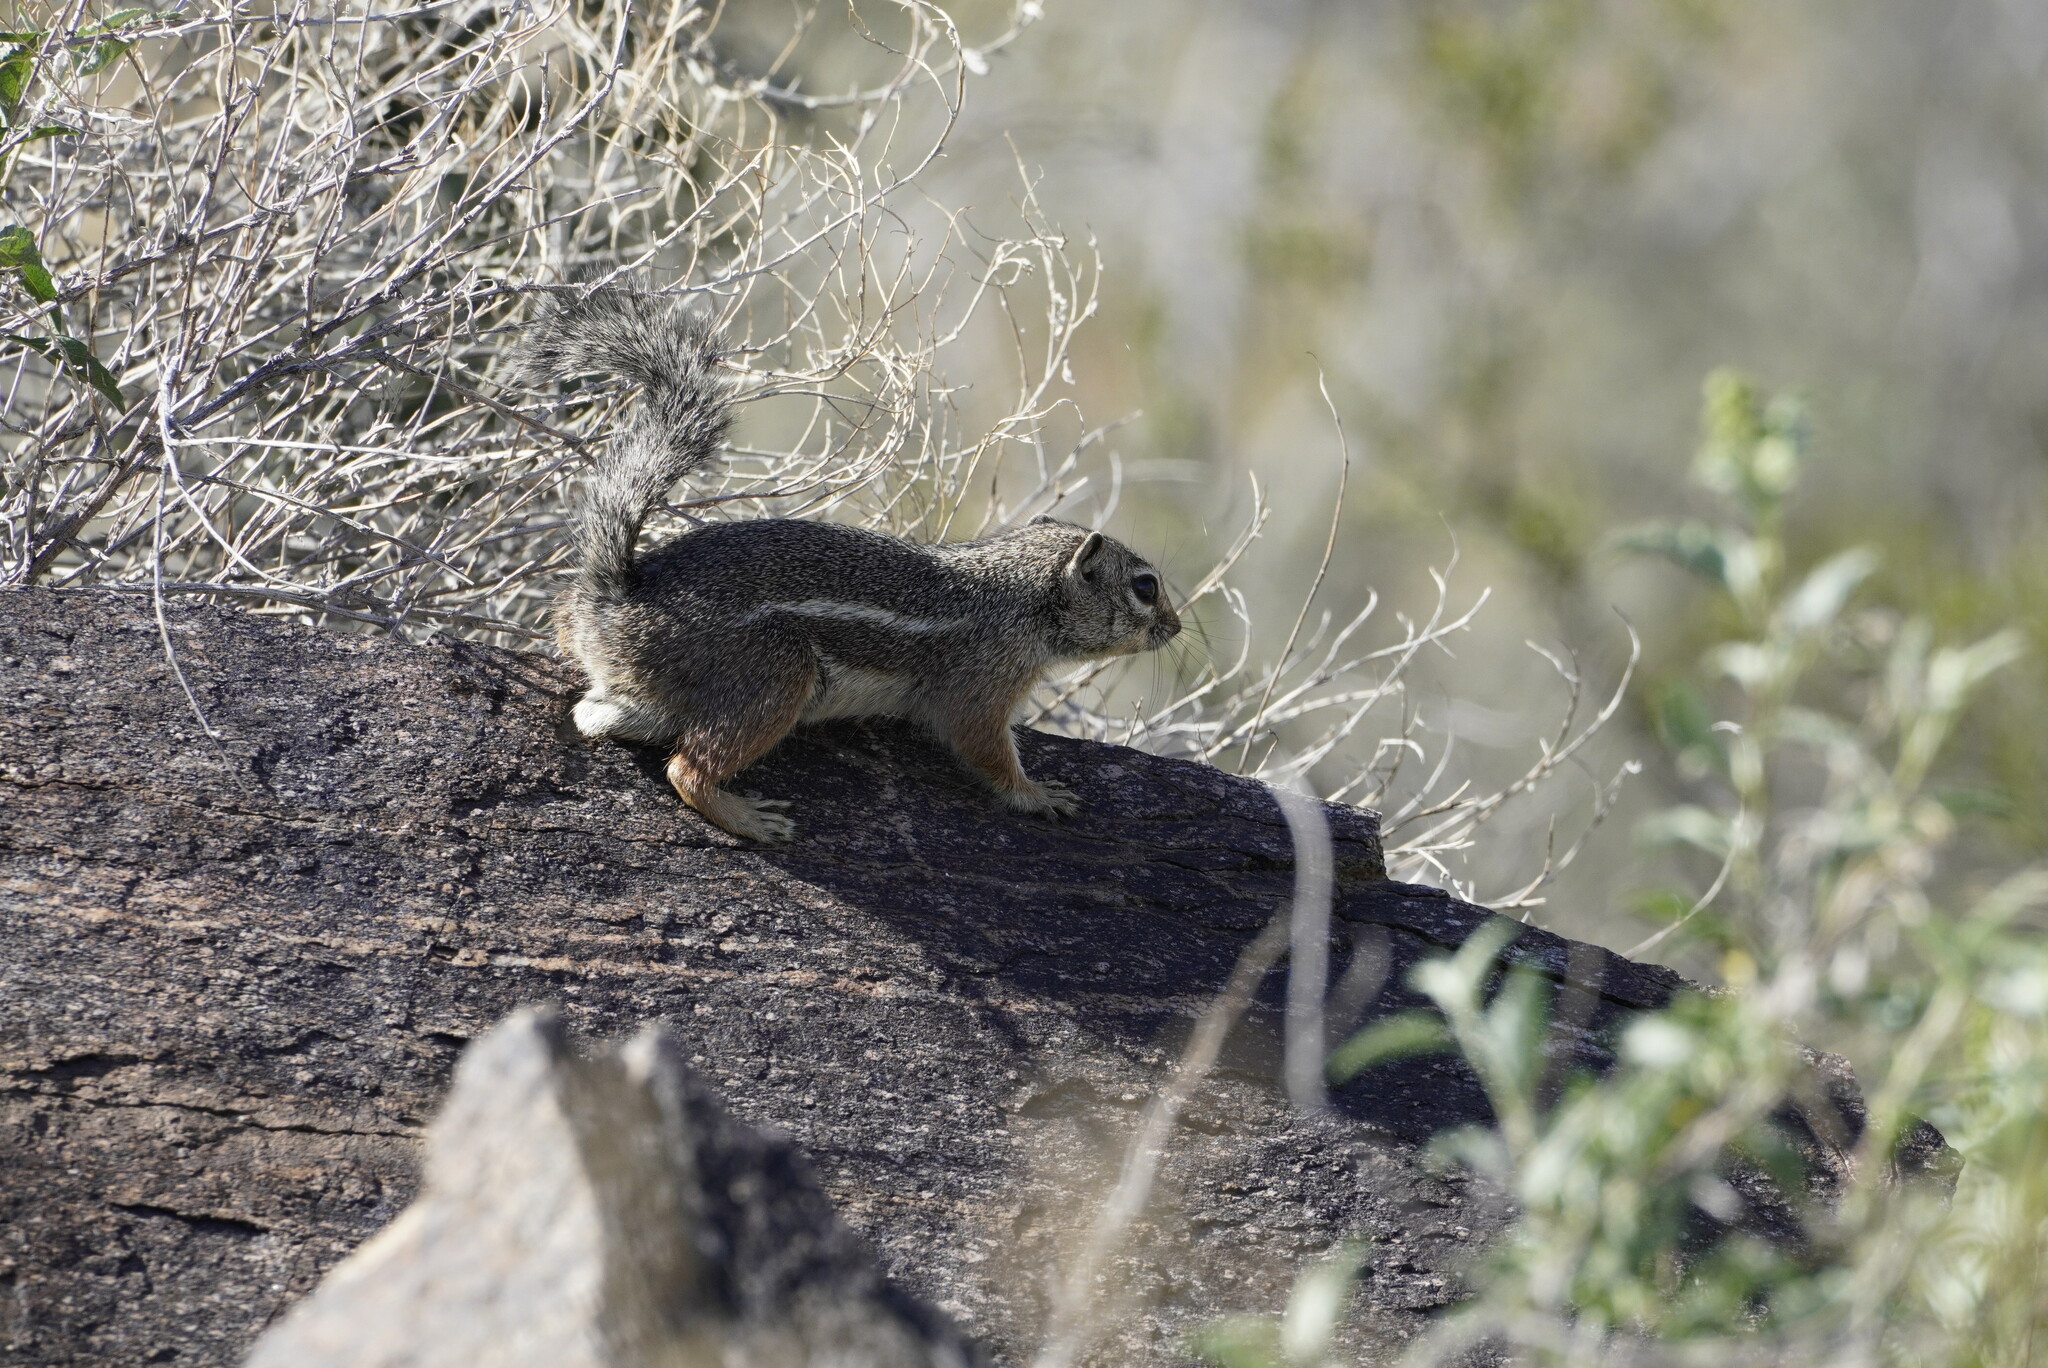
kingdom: Animalia
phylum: Chordata
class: Mammalia
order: Rodentia
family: Sciuridae
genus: Ammospermophilus
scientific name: Ammospermophilus harrisii
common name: Harris's antelope squirrel
